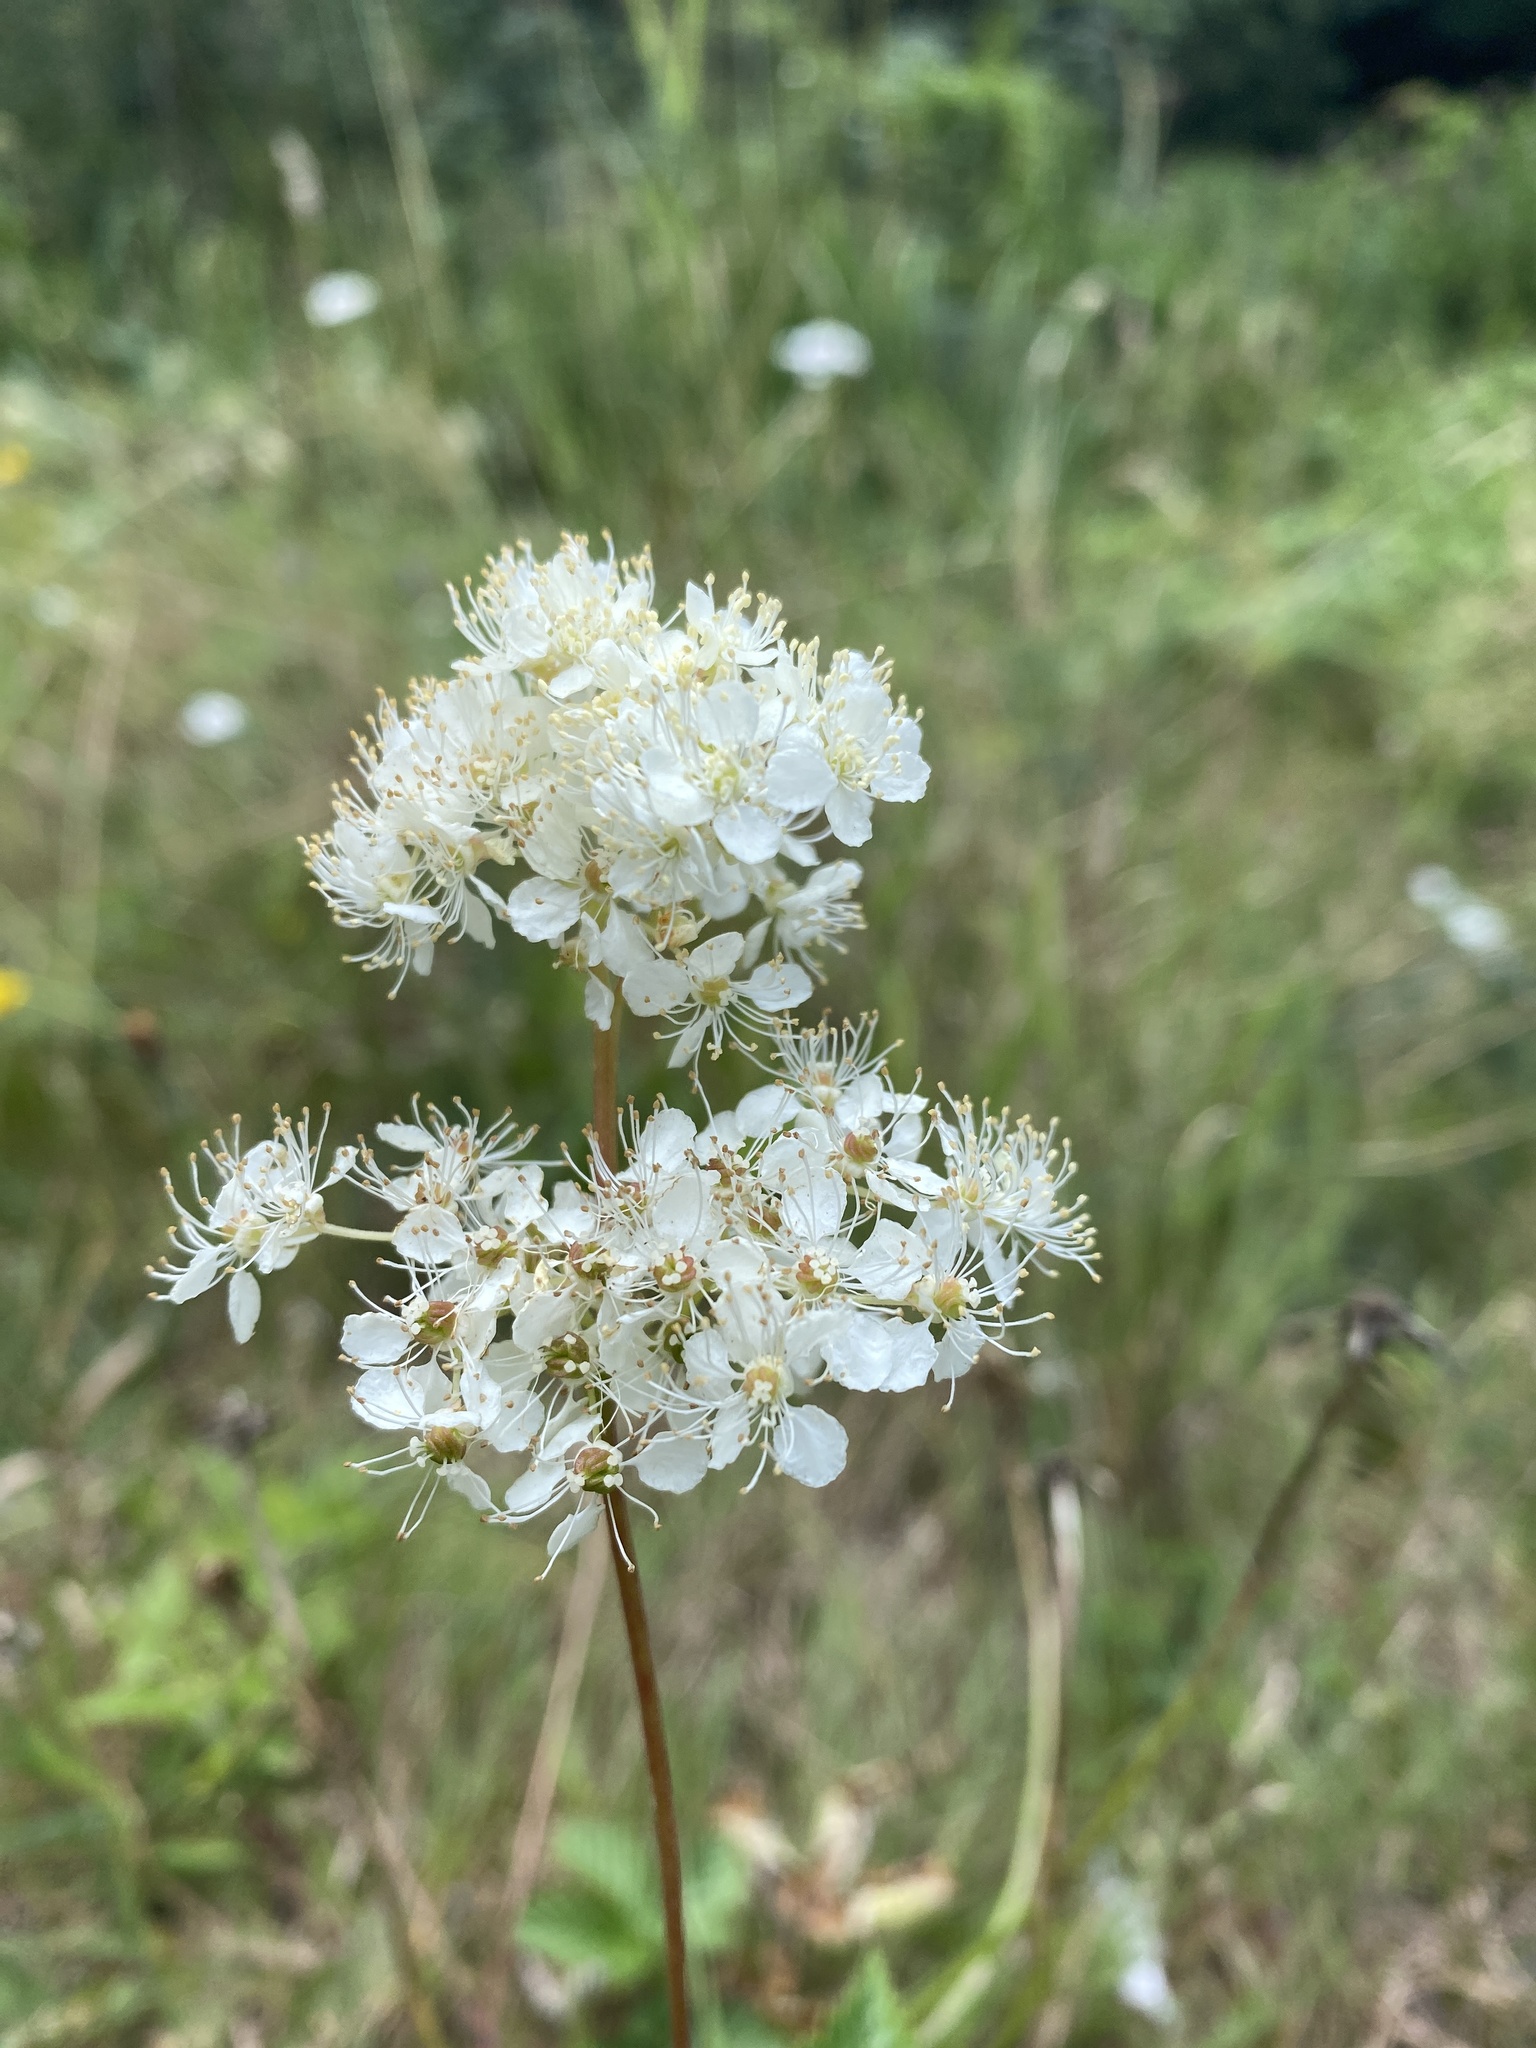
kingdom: Plantae
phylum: Tracheophyta
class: Magnoliopsida
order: Rosales
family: Rosaceae
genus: Filipendula
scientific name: Filipendula vulgaris
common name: Dropwort
